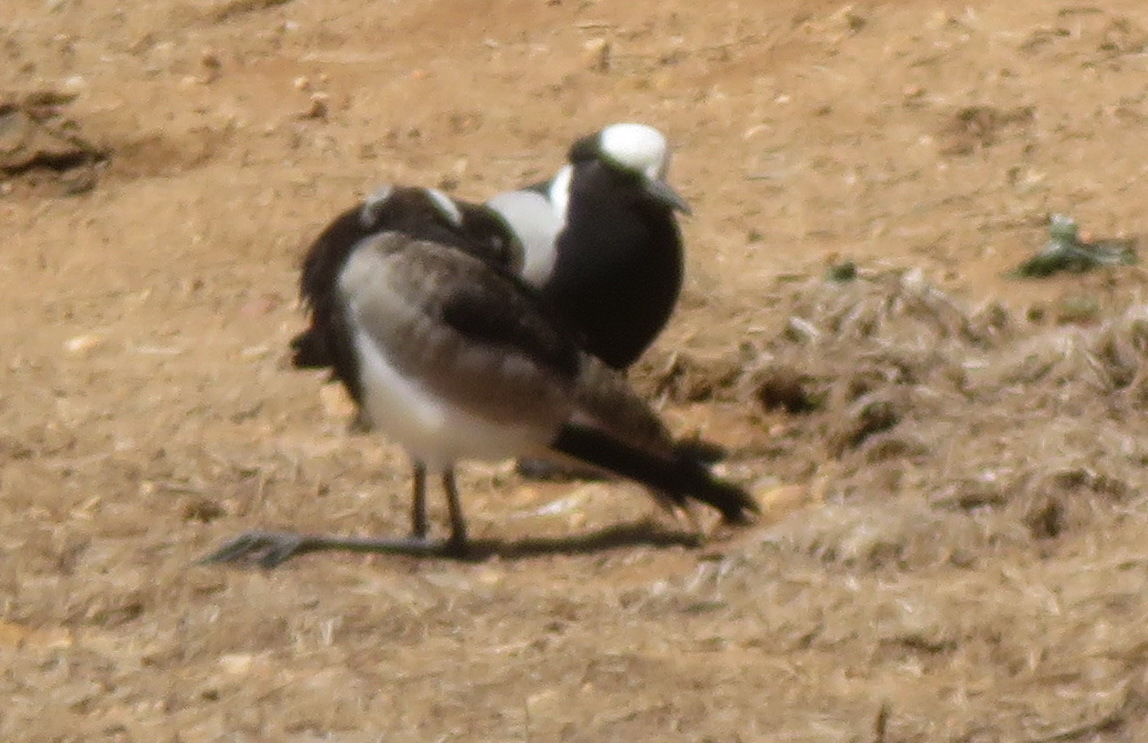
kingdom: Animalia
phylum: Chordata
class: Aves
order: Charadriiformes
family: Charadriidae
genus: Vanellus
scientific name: Vanellus armatus
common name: Blacksmith lapwing
